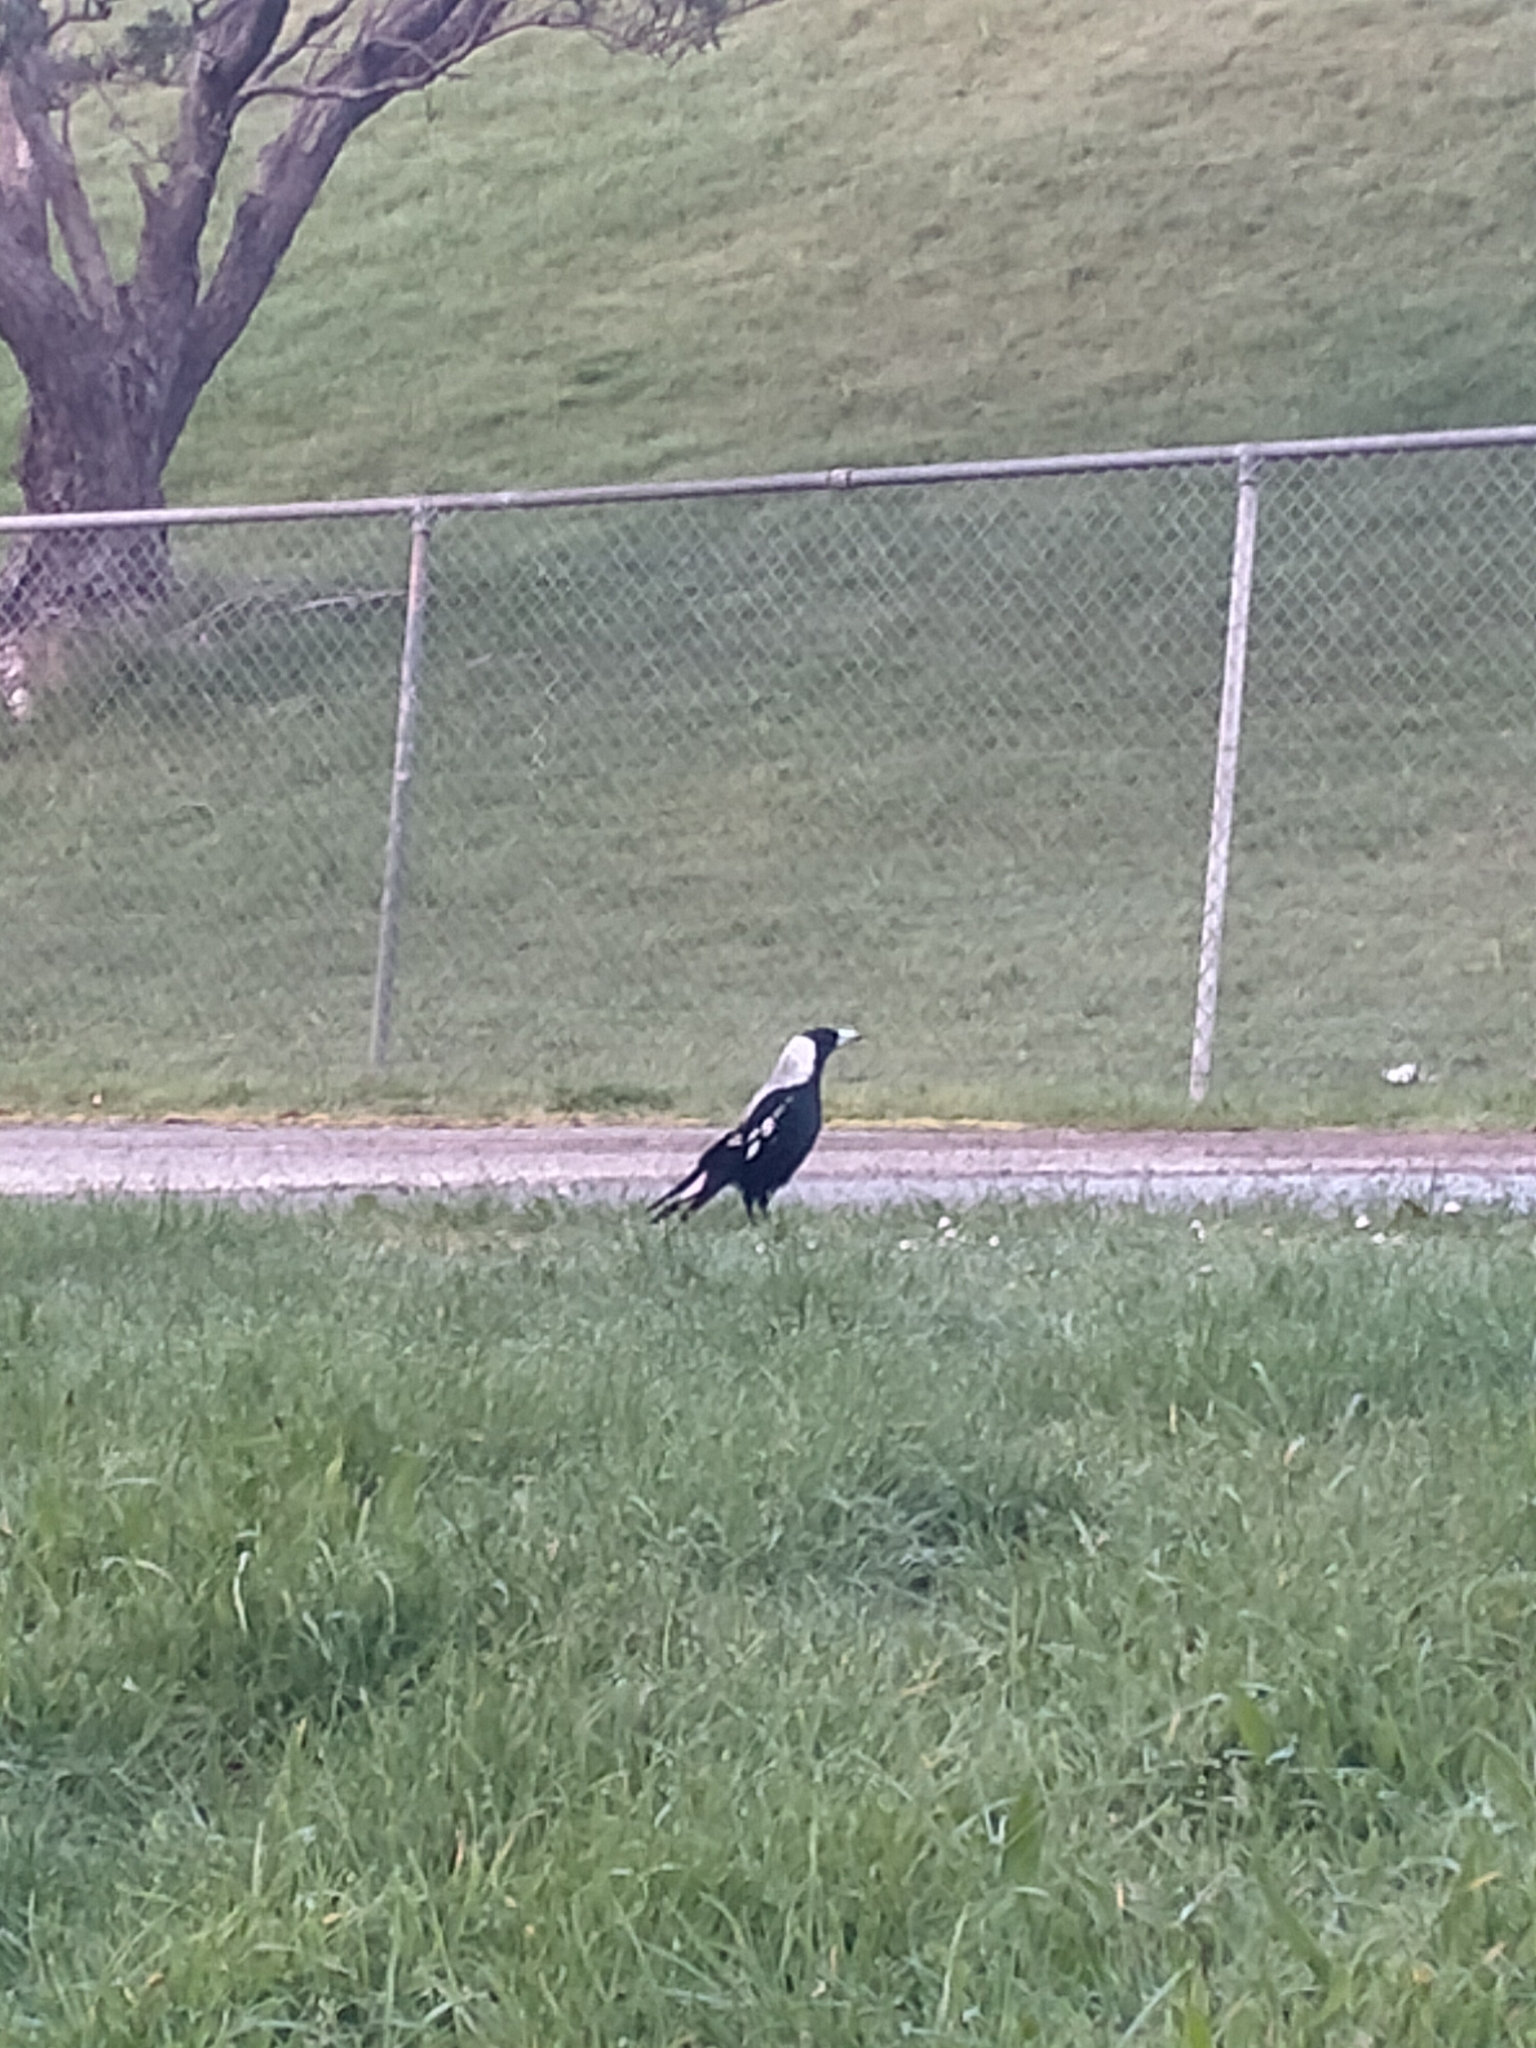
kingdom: Animalia
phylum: Chordata
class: Aves
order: Passeriformes
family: Cracticidae
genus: Gymnorhina
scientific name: Gymnorhina tibicen
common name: Australian magpie
